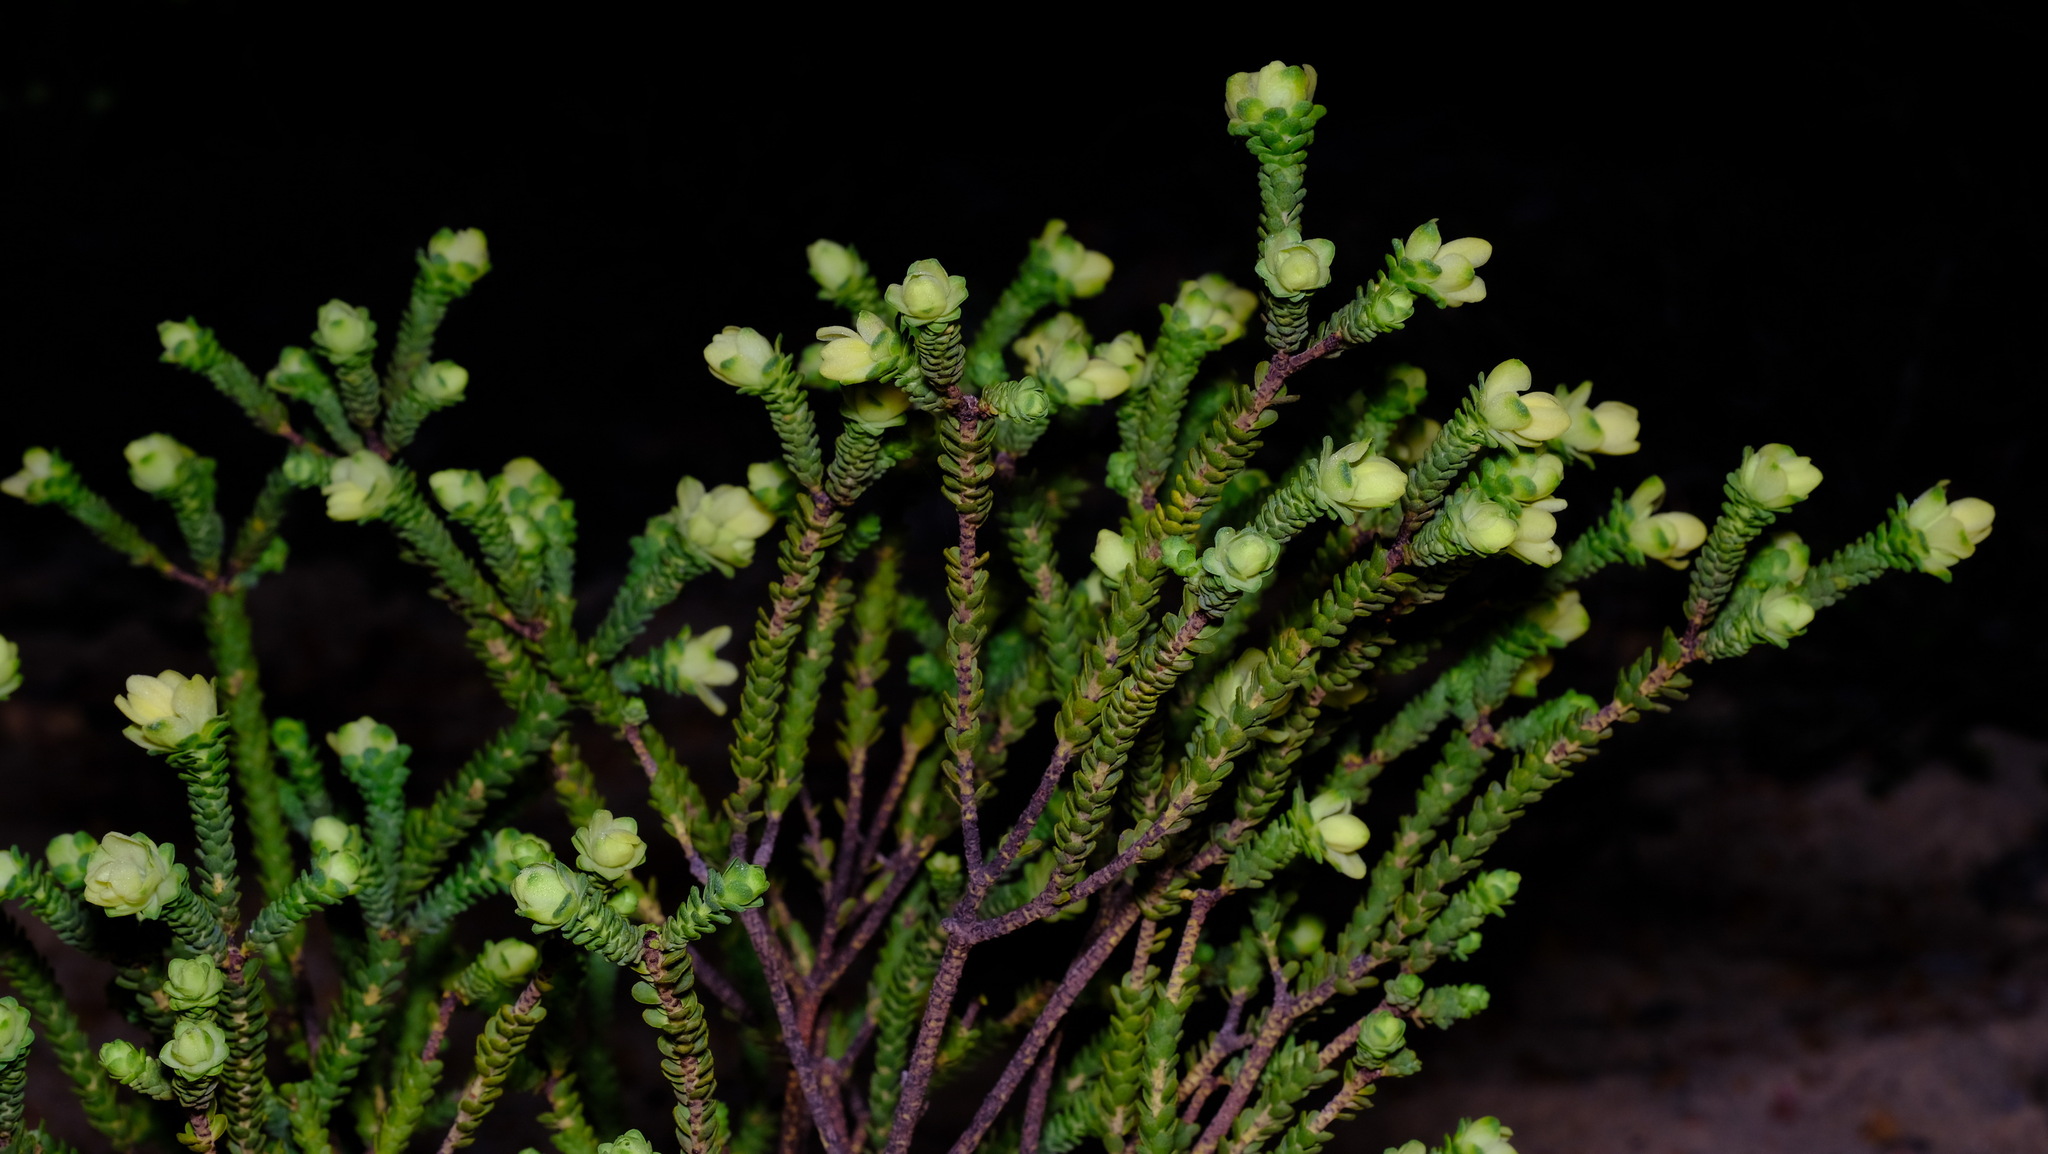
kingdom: Plantae
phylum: Tracheophyta
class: Magnoliopsida
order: Sapindales
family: Rutaceae
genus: Geleznowia
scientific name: Geleznowia verrucosa
